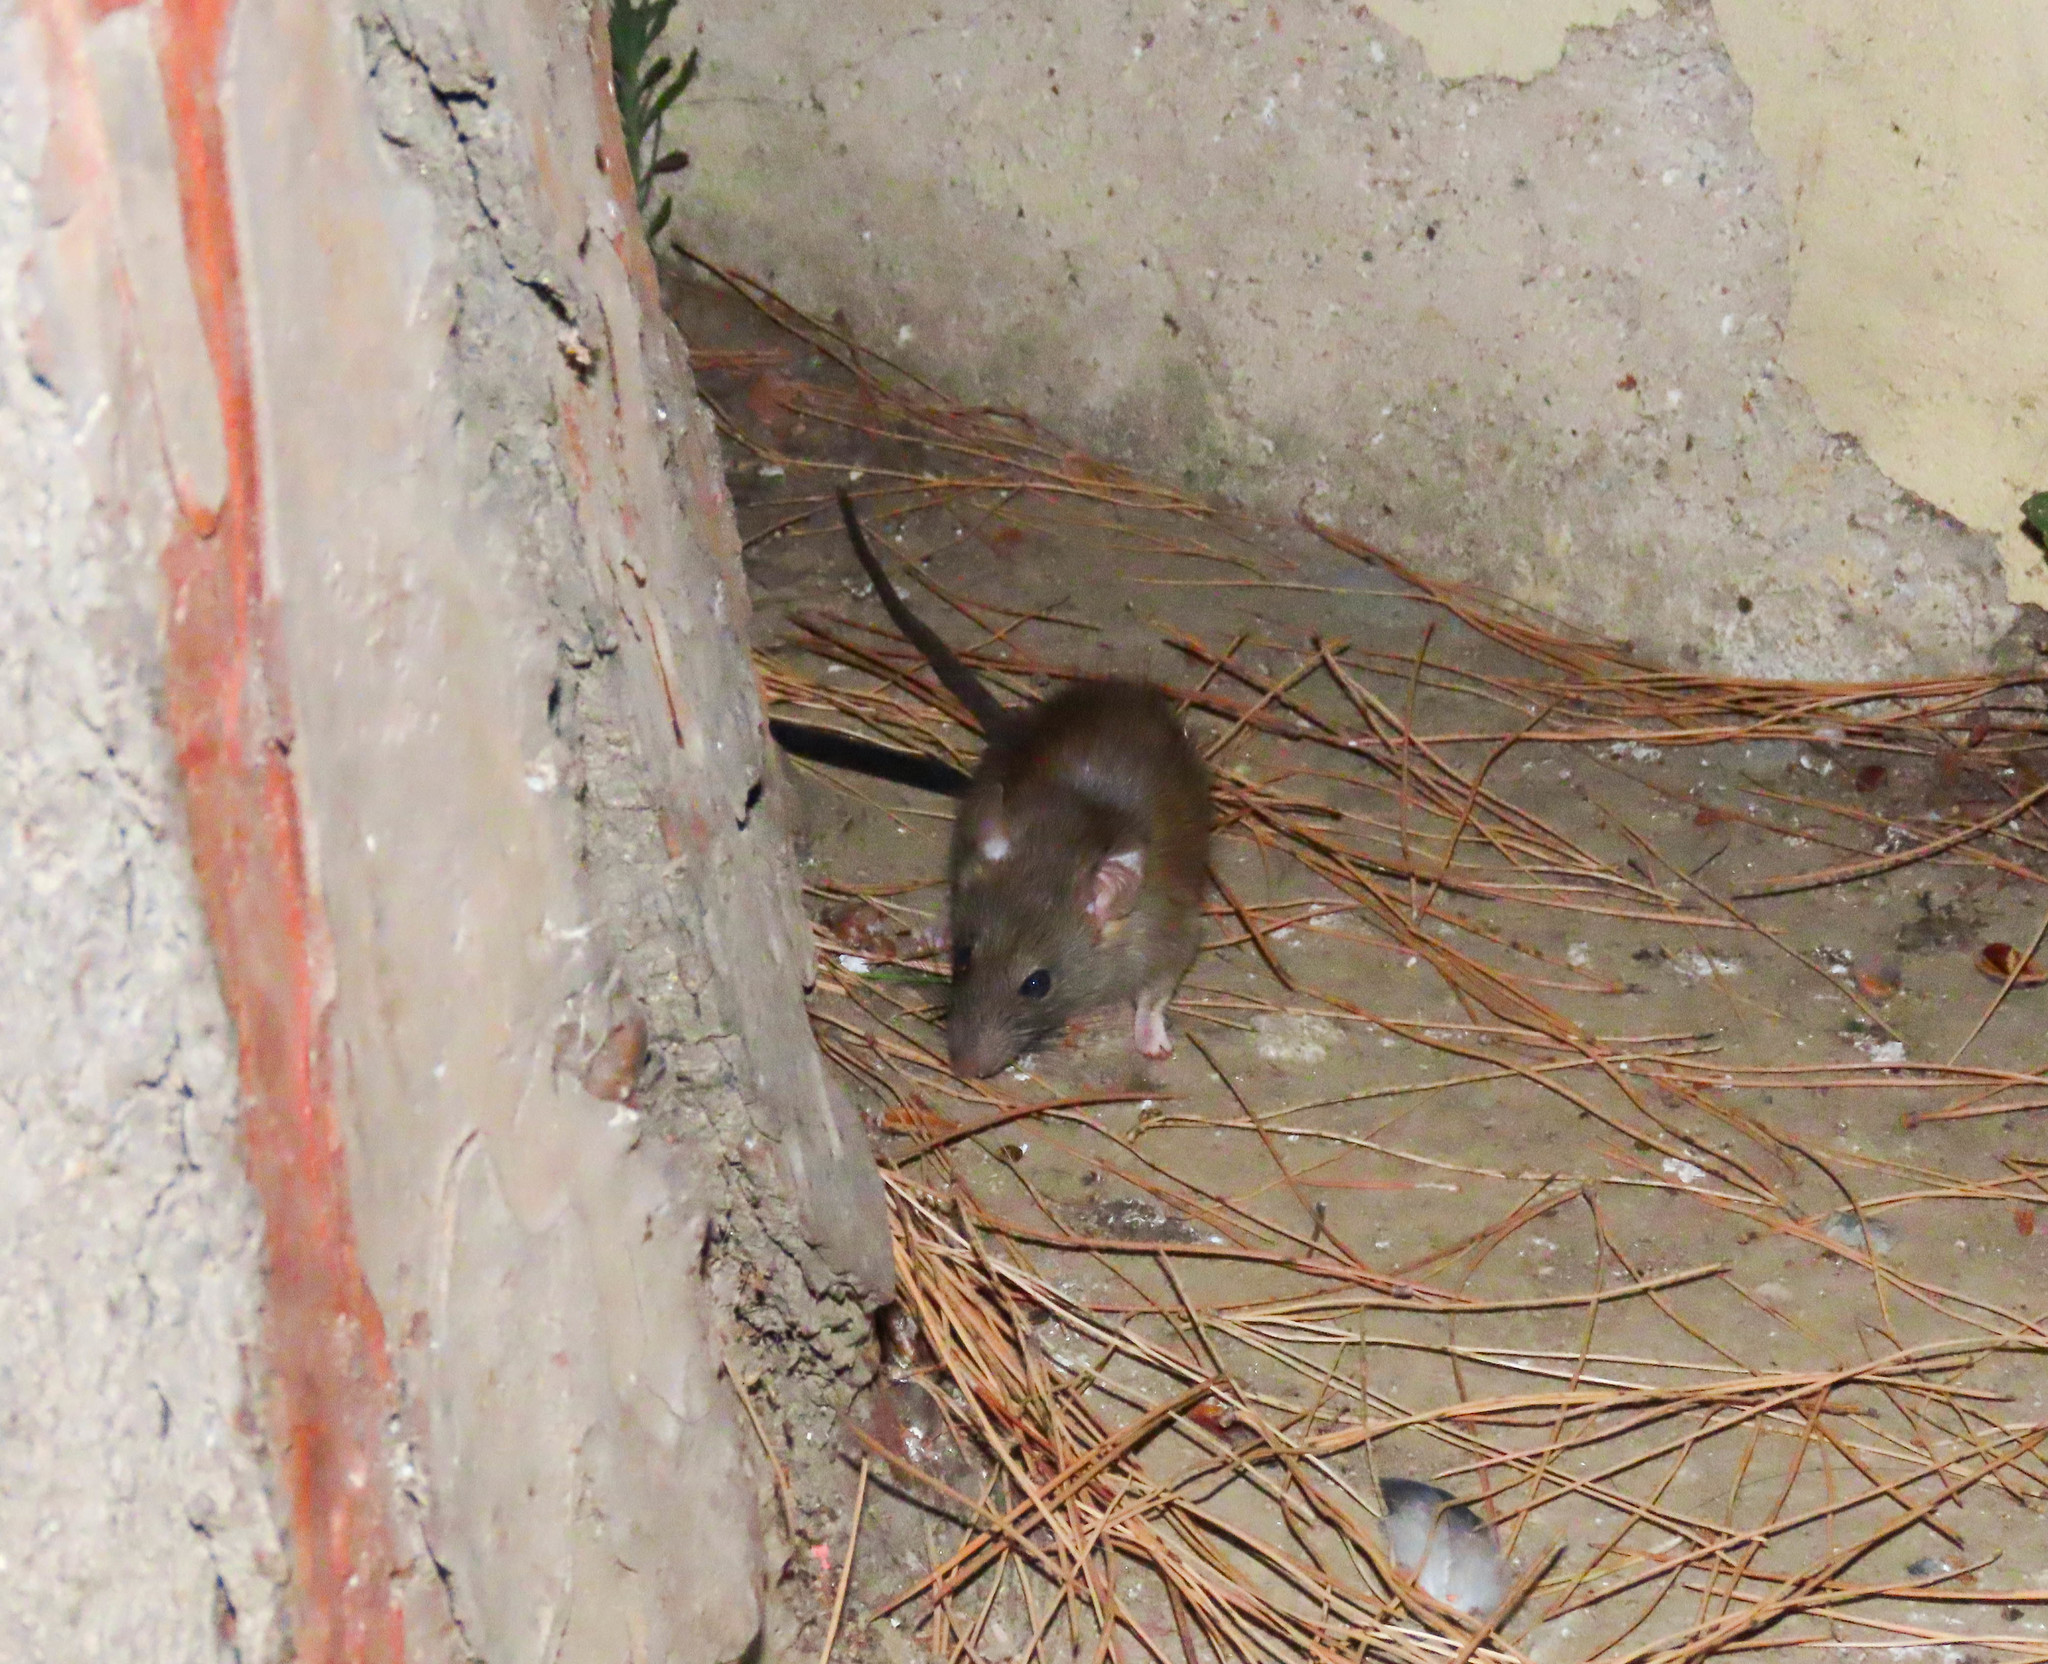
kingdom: Animalia
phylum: Chordata
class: Mammalia
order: Rodentia
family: Muridae
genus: Rattus
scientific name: Rattus rattus
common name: Black rat
